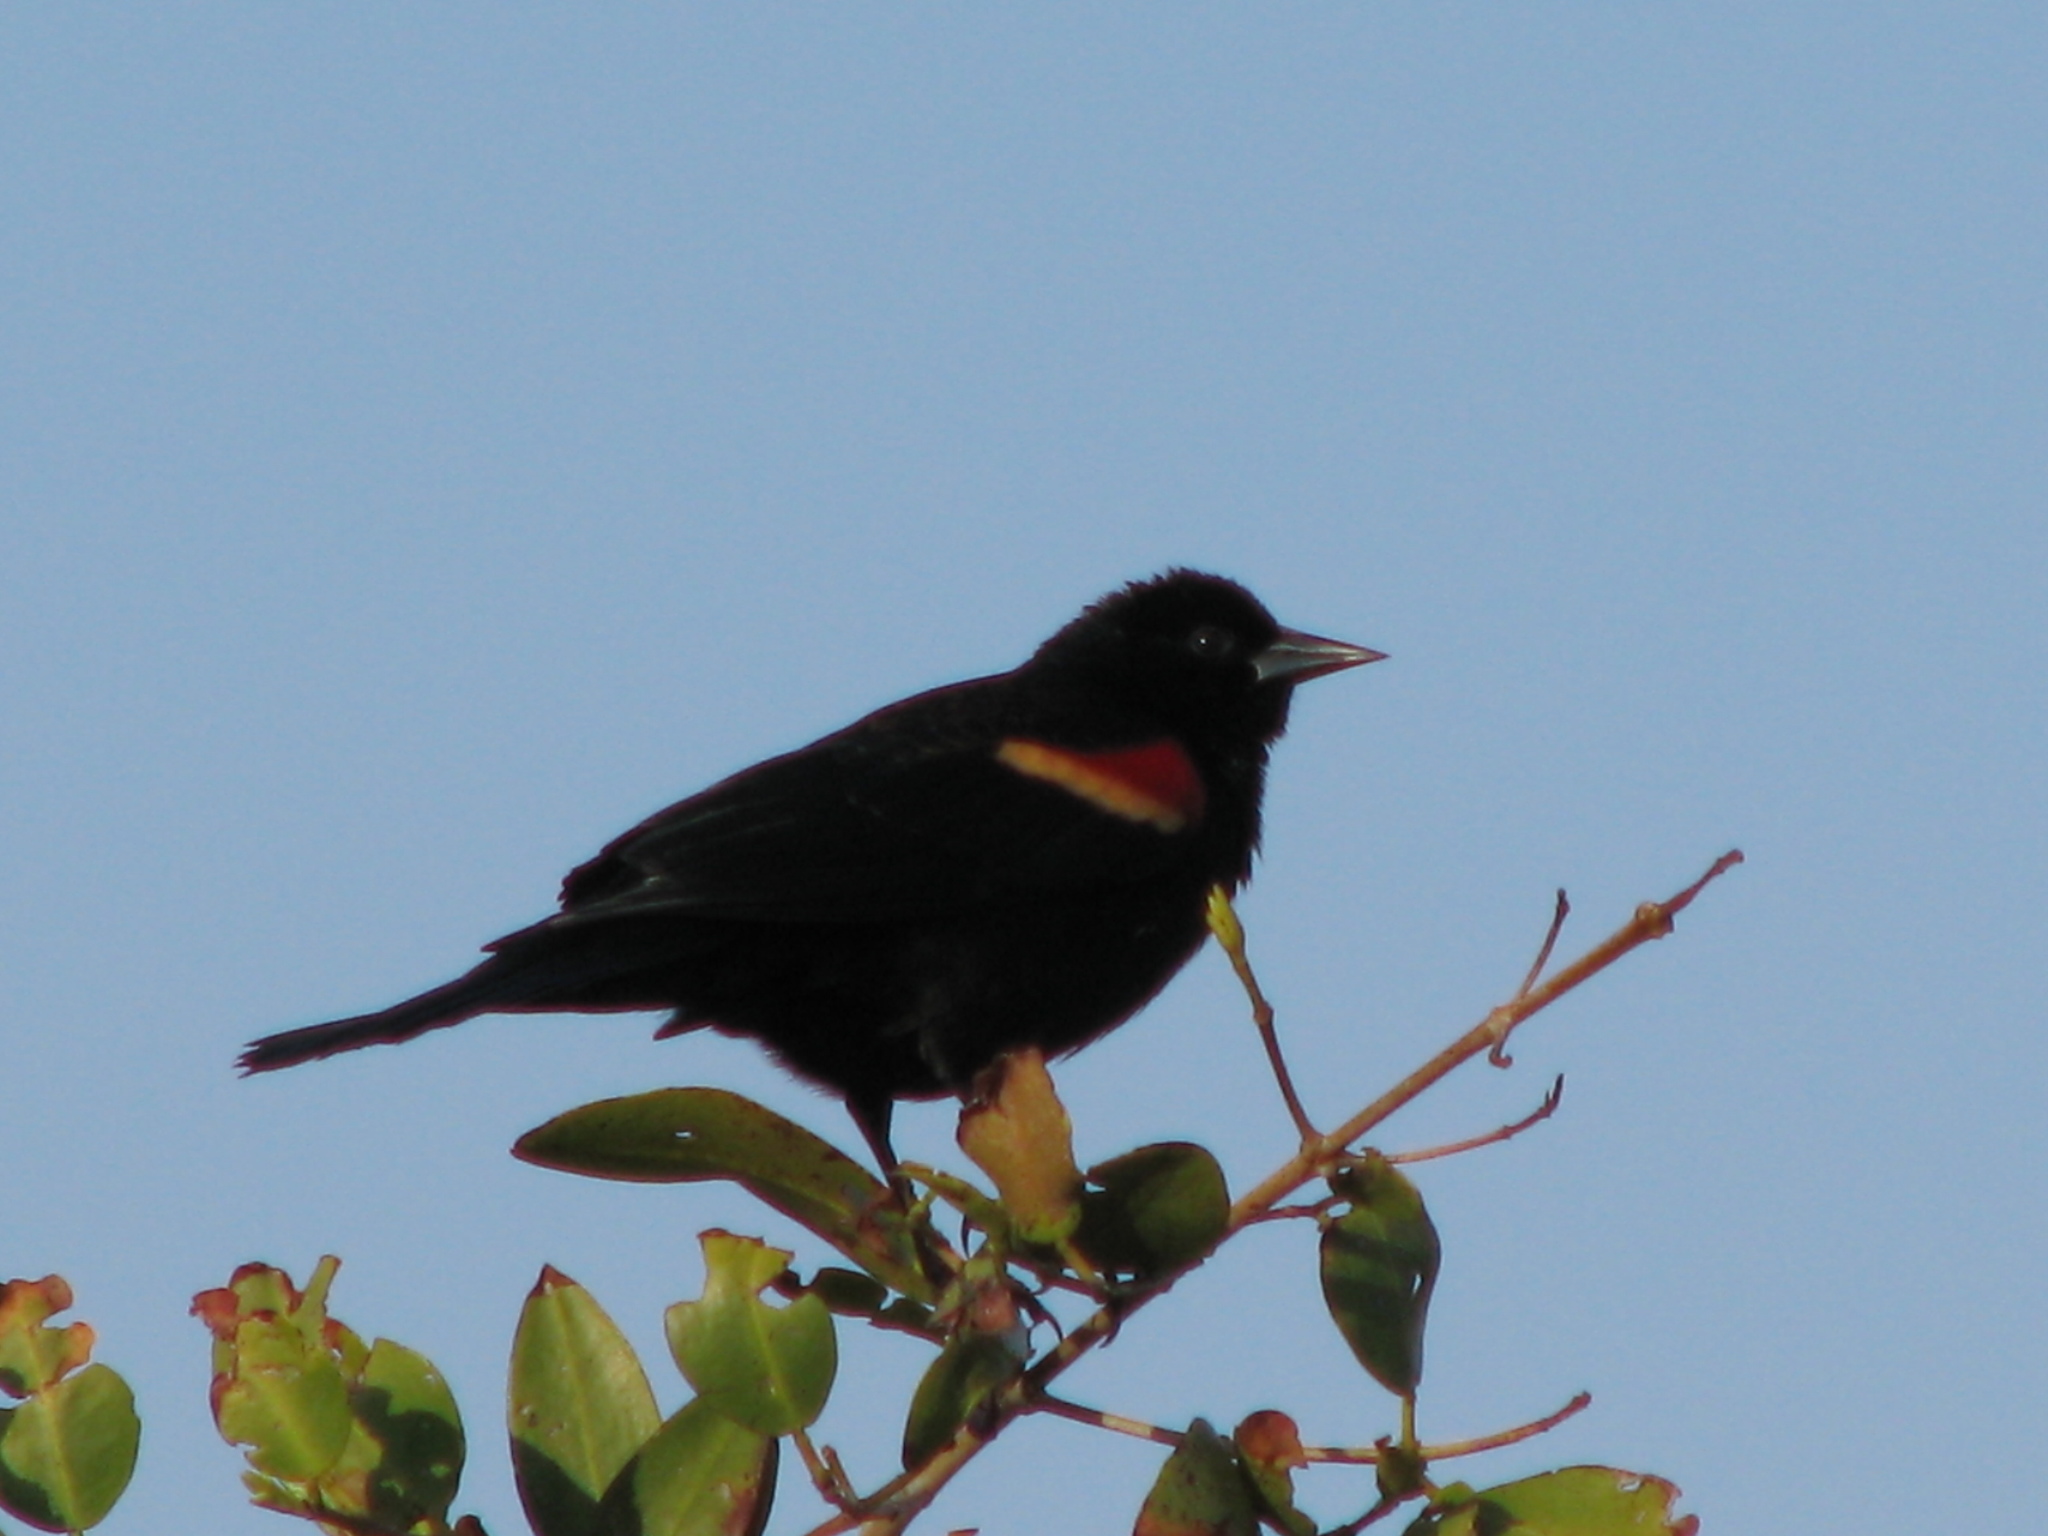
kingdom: Animalia
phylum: Chordata
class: Aves
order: Passeriformes
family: Icteridae
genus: Agelaius
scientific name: Agelaius phoeniceus
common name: Red-winged blackbird
